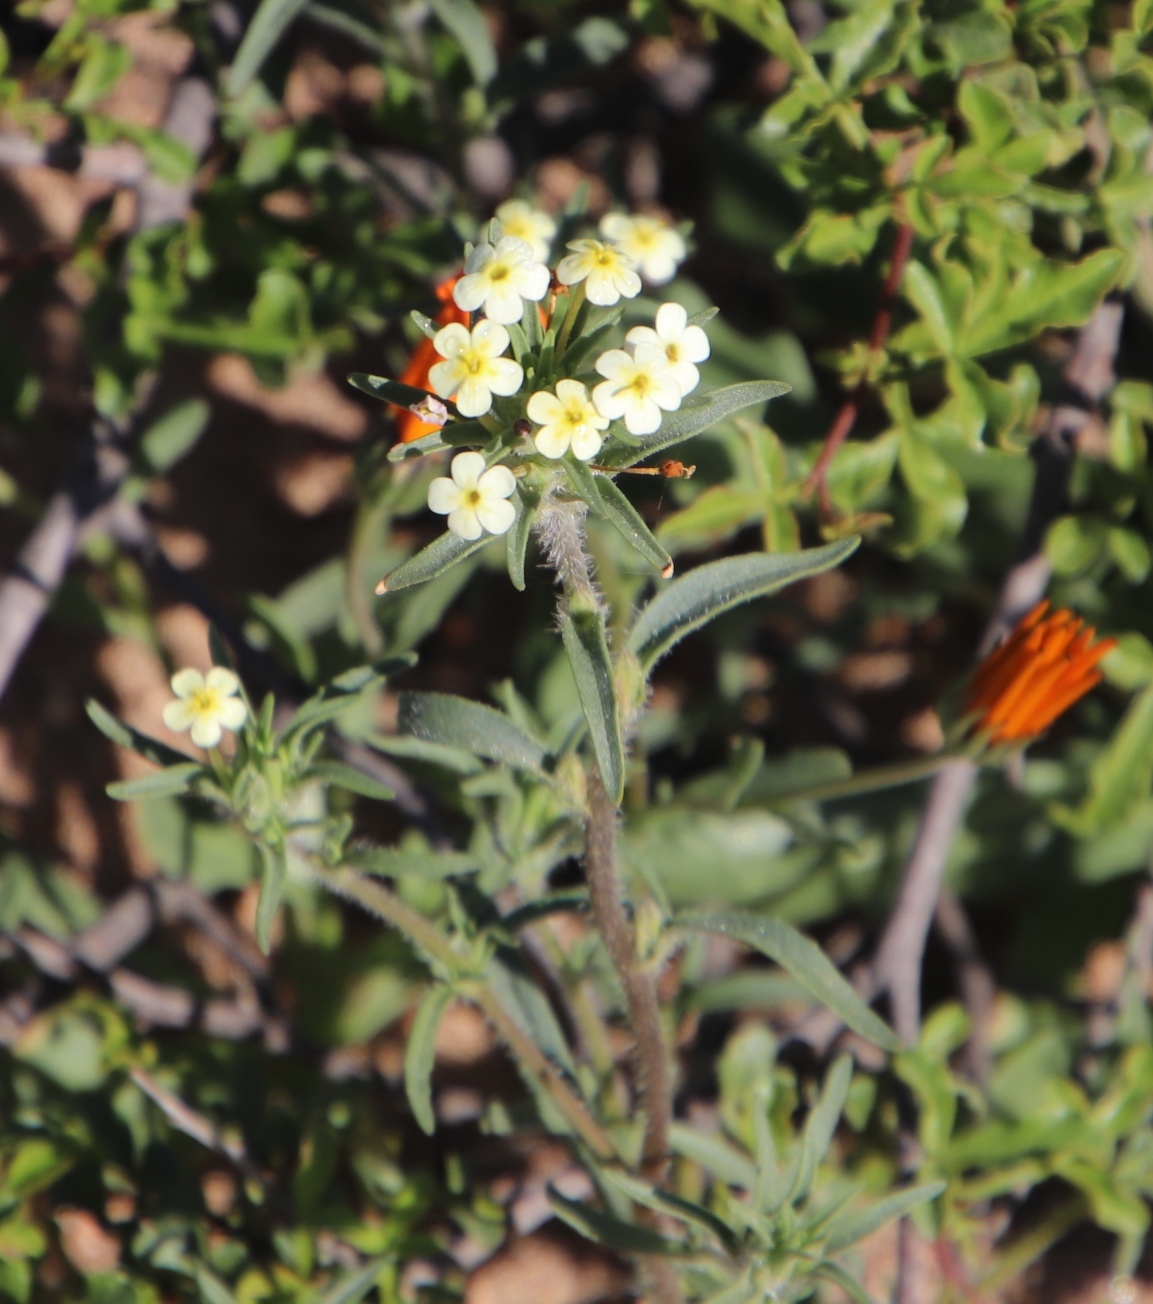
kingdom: Plantae
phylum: Tracheophyta
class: Magnoliopsida
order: Lamiales
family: Scrophulariaceae
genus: Zaluzianskya
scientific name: Zaluzianskya benthamiana
